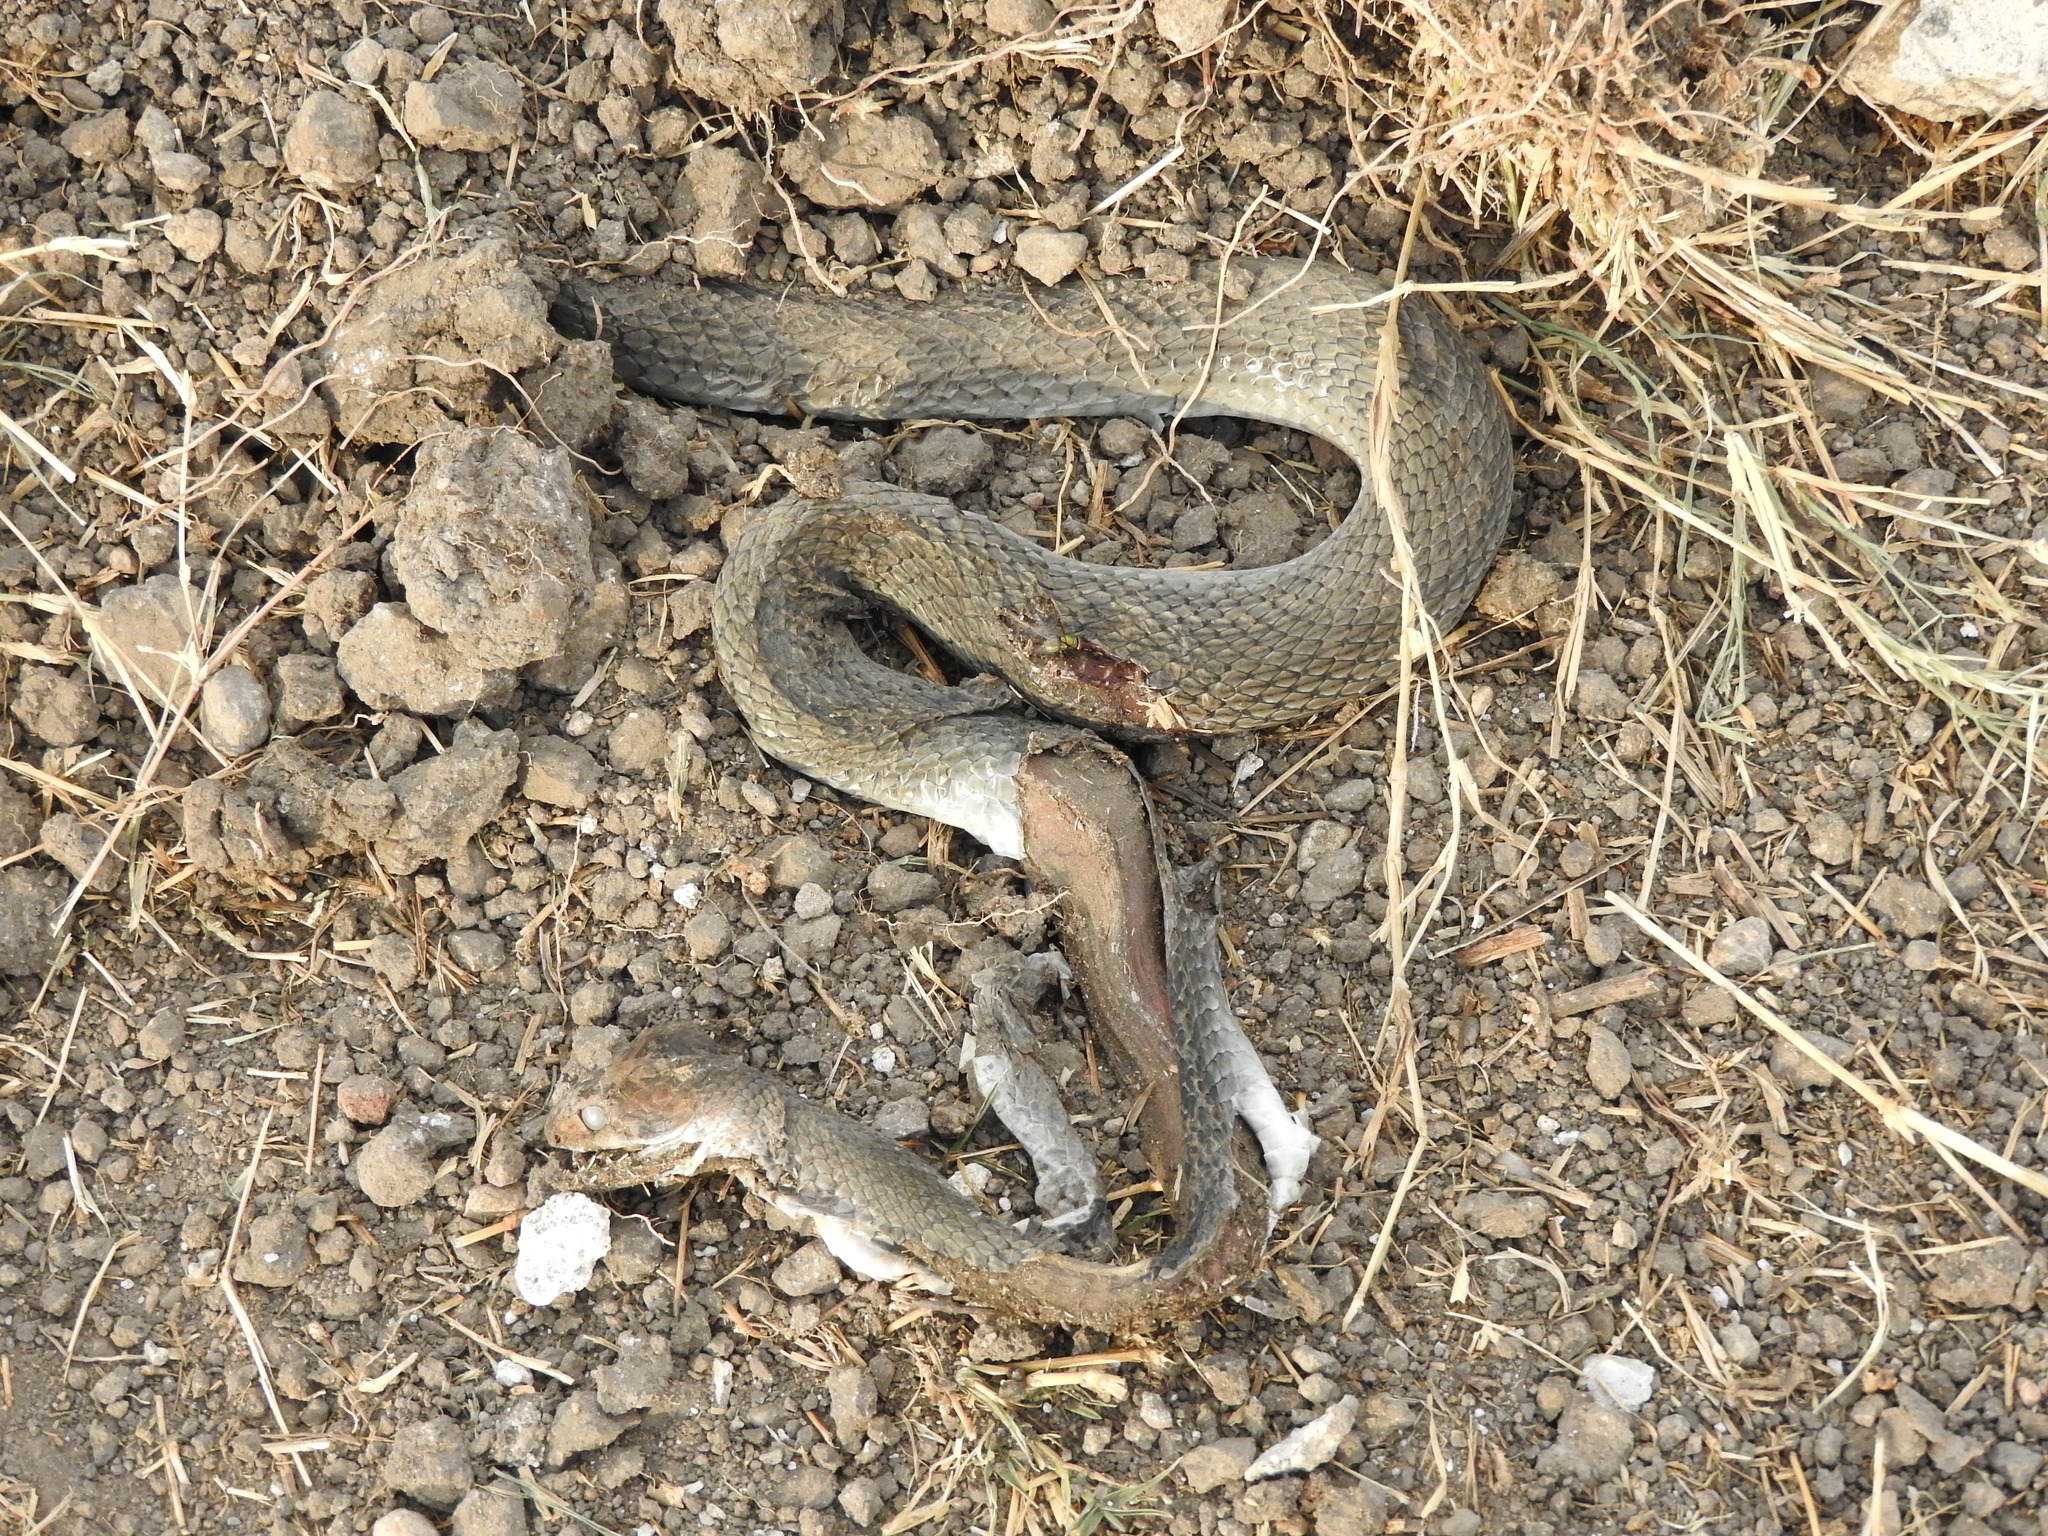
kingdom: Animalia
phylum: Chordata
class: Squamata
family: Colubridae
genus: Masticophis
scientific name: Masticophis mentovarius
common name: Neotropical whip snake
